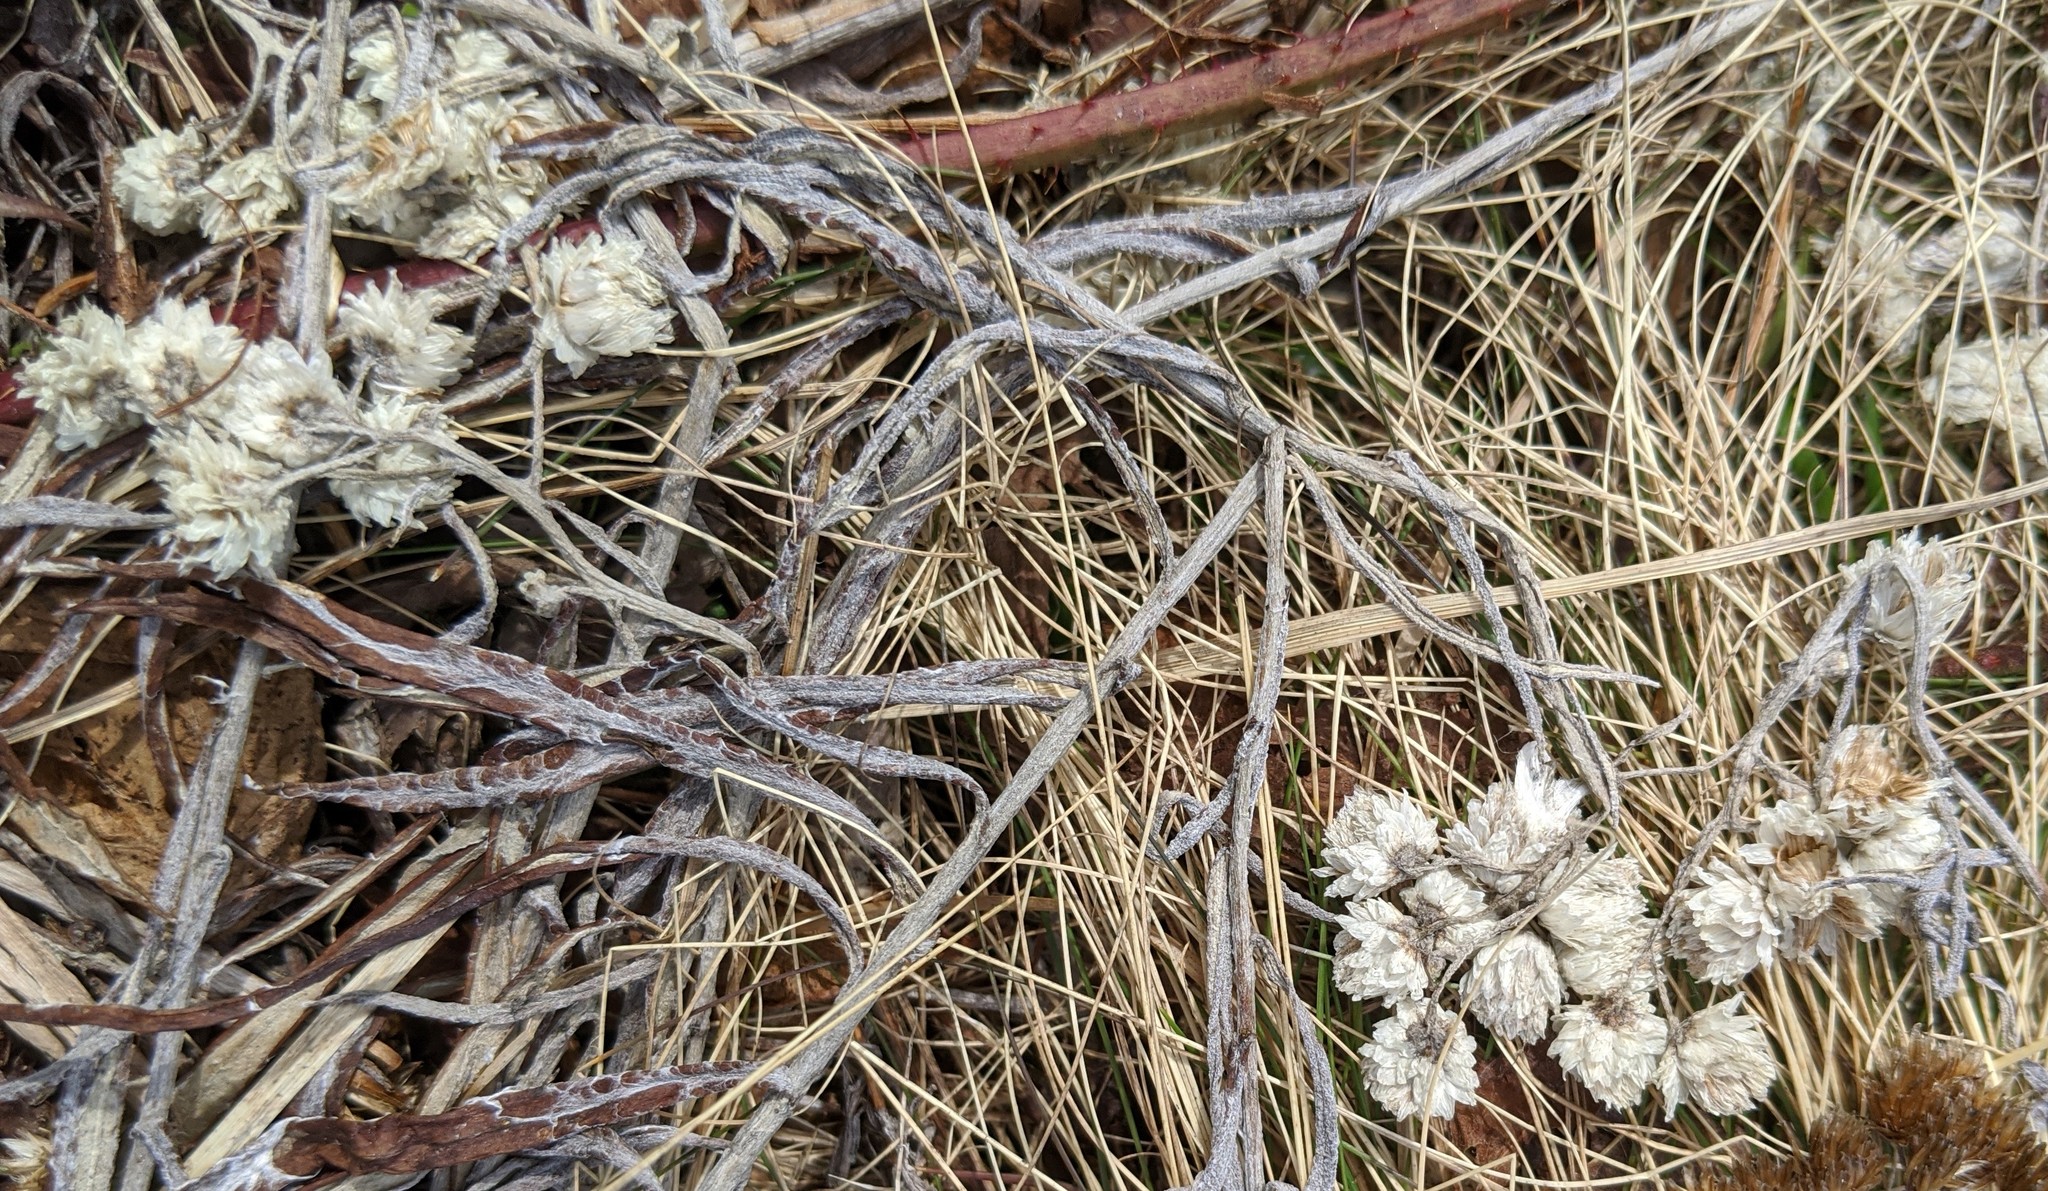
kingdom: Plantae
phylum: Tracheophyta
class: Magnoliopsida
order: Asterales
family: Asteraceae
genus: Anaphalis
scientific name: Anaphalis margaritacea
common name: Pearly everlasting
